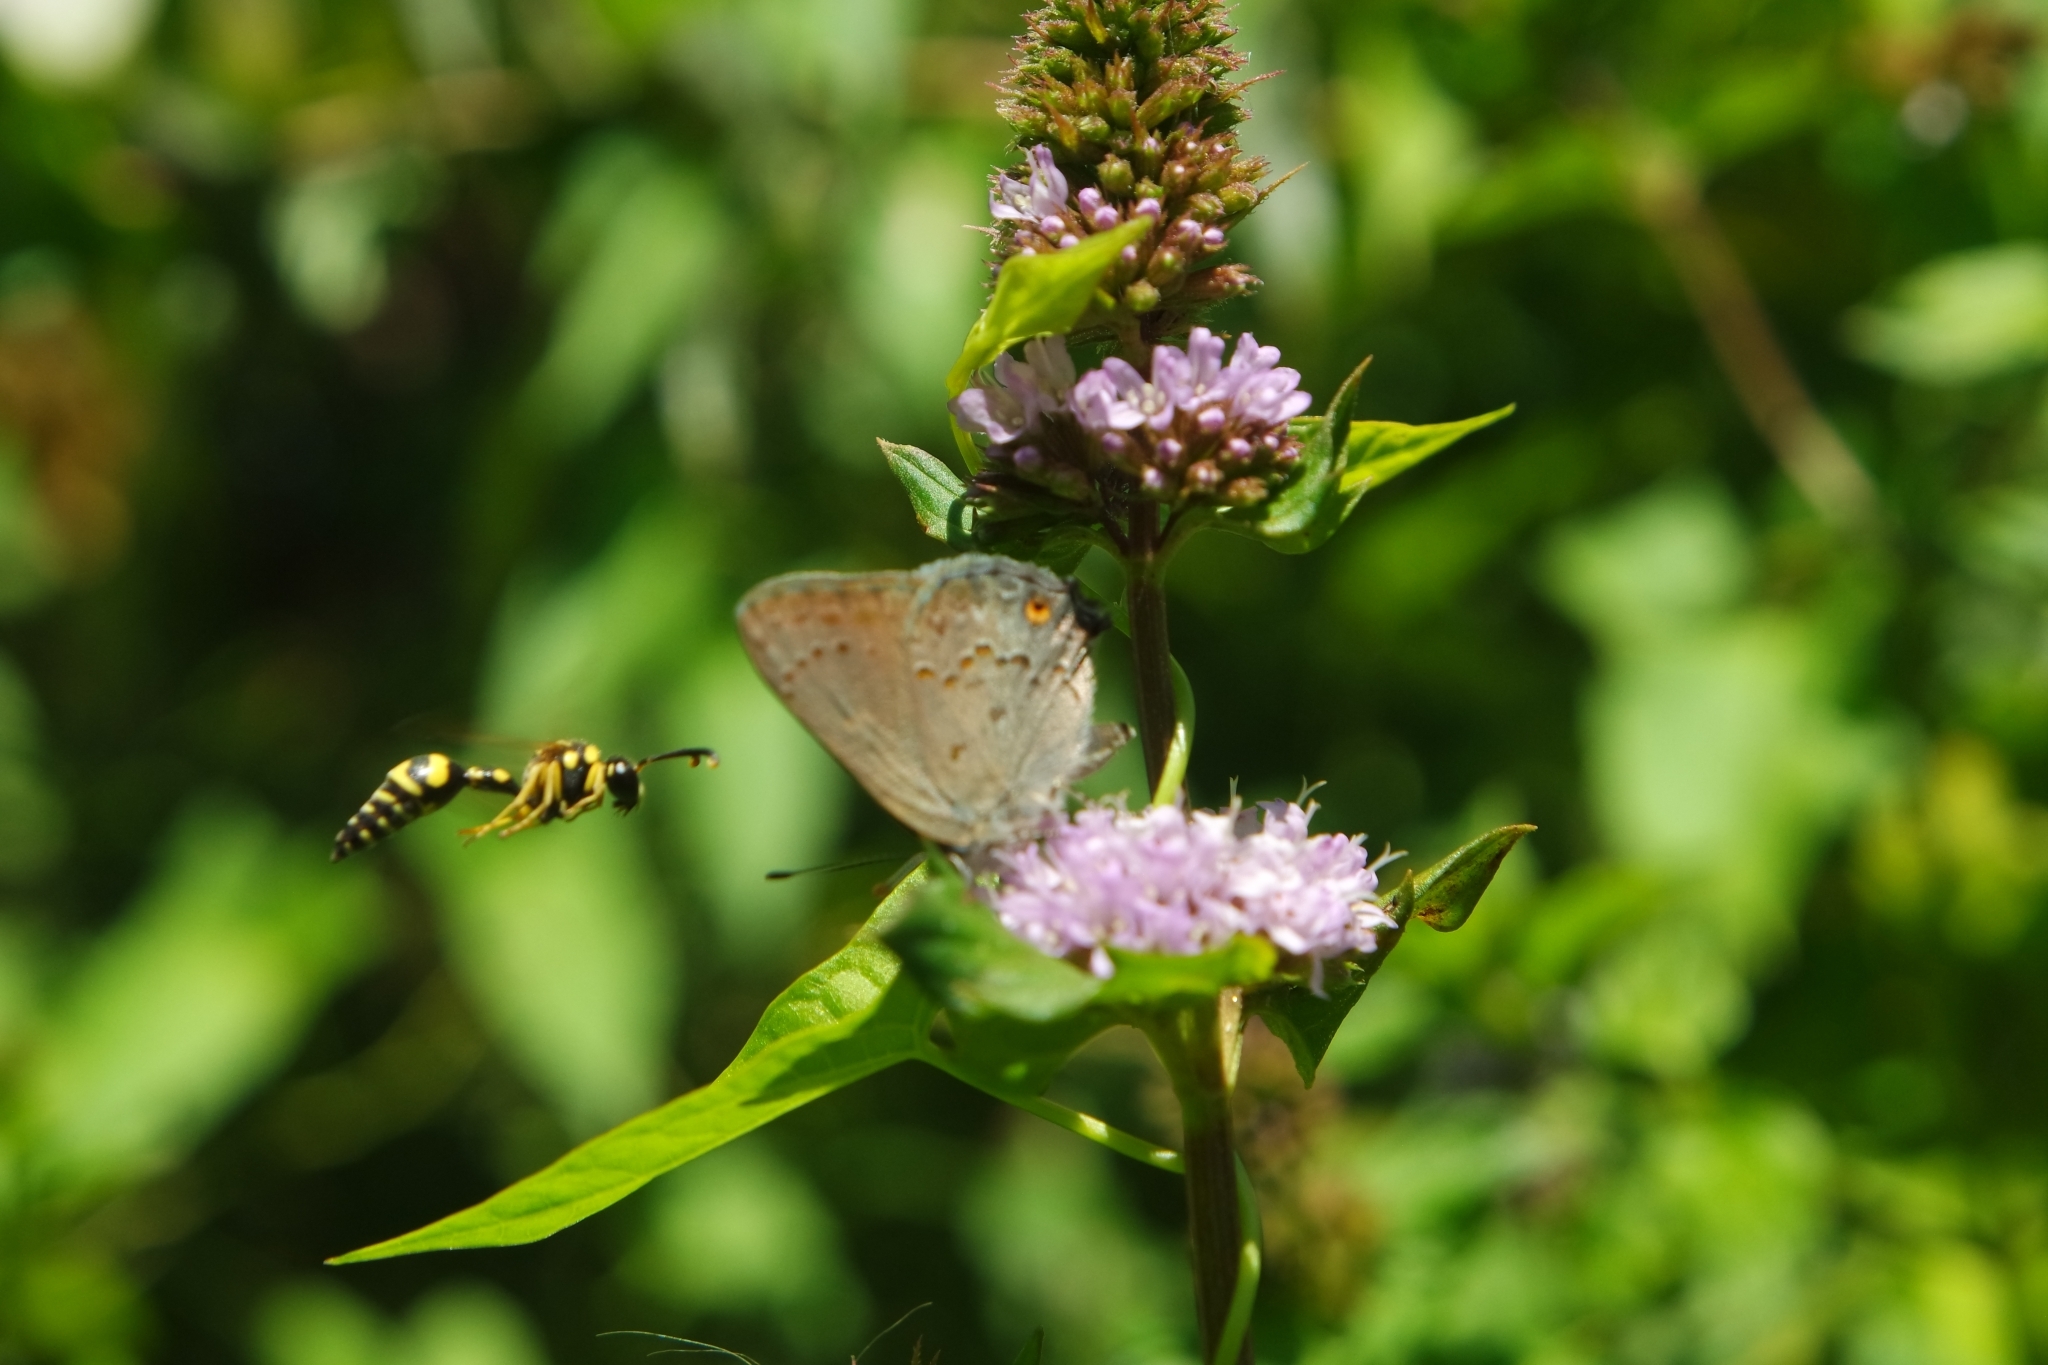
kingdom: Animalia
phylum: Arthropoda
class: Insecta
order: Hymenoptera
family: Vespidae
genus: Eumenes
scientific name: Eumenes dubius
